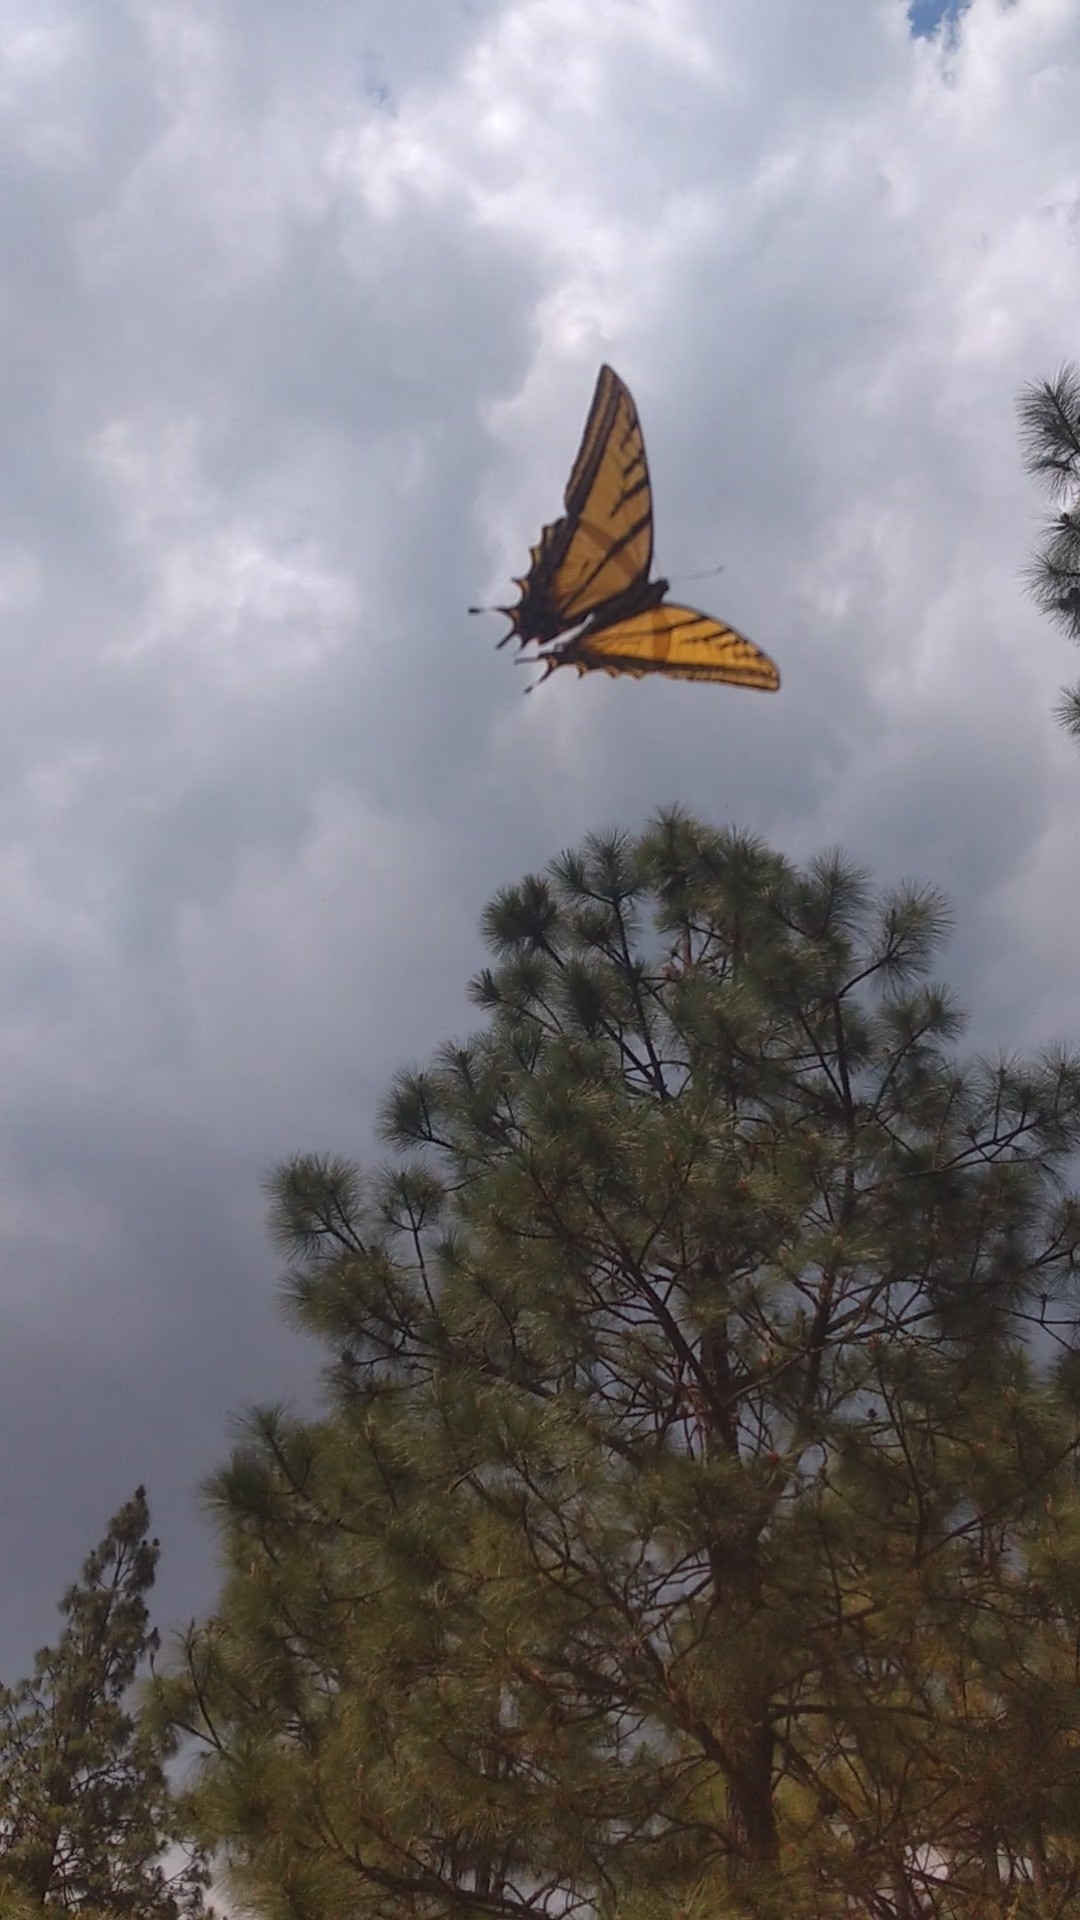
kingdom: Animalia
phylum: Arthropoda
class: Insecta
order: Lepidoptera
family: Papilionidae
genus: Papilio
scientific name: Papilio multicaudata
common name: Two-tailed tiger swallowtail
